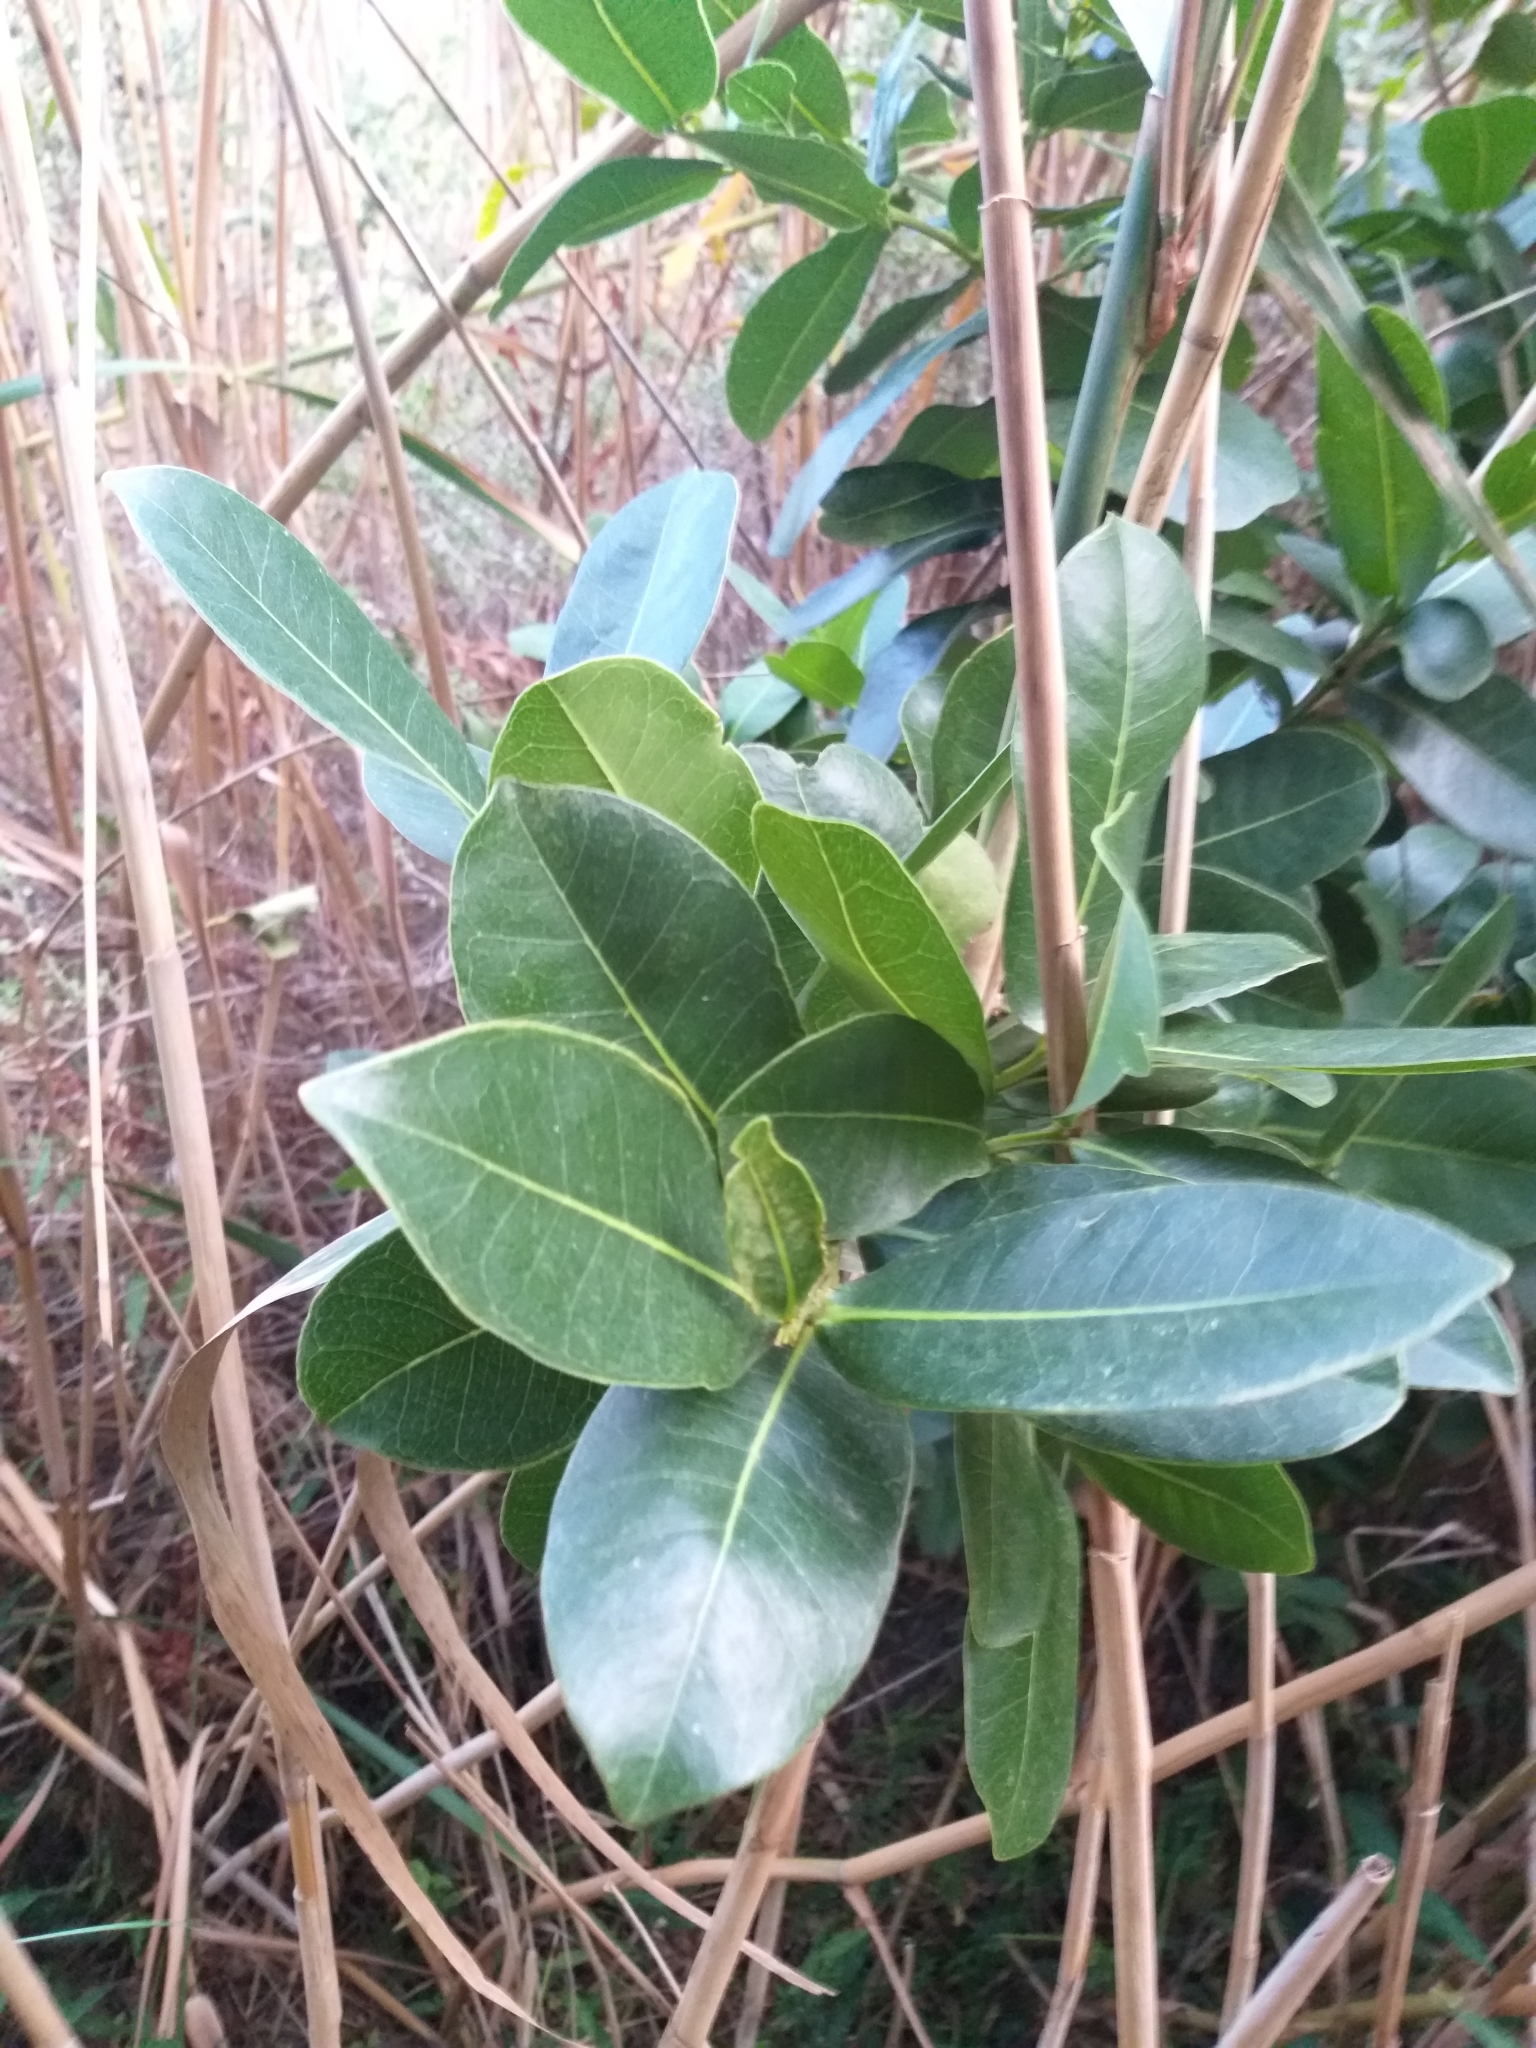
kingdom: Plantae
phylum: Tracheophyta
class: Magnoliopsida
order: Myrtales
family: Myrtaceae
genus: Syzygium
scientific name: Syzygium cordatum
